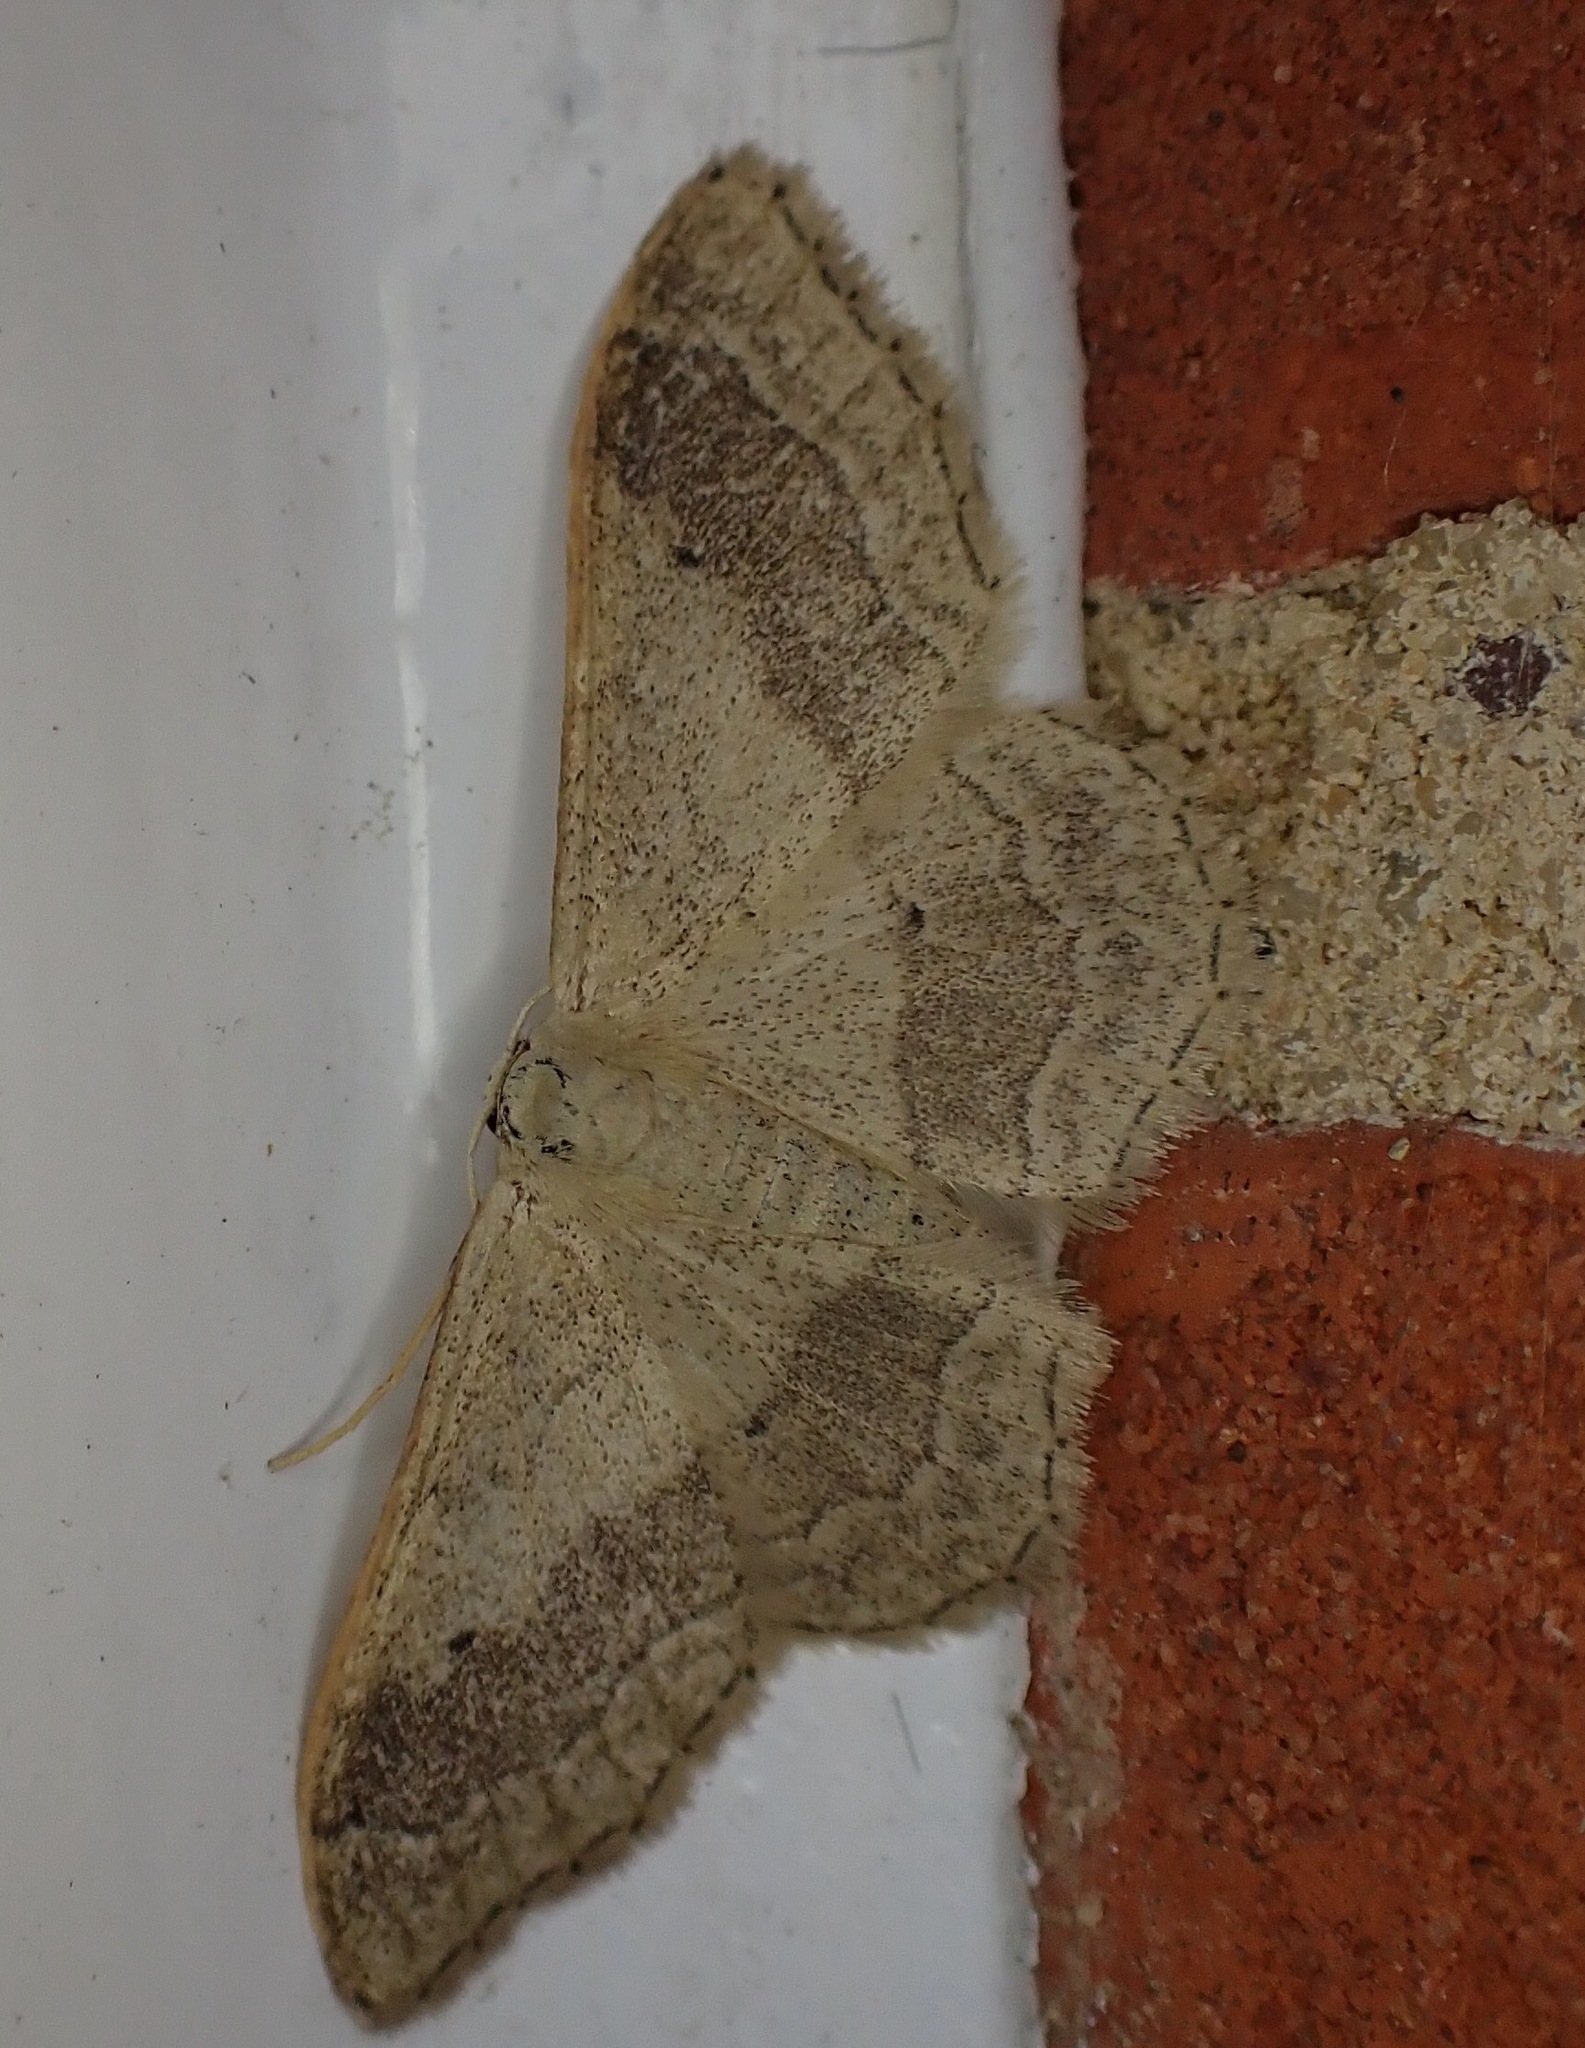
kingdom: Animalia
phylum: Arthropoda
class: Insecta
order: Lepidoptera
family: Geometridae
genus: Idaea
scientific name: Idaea aversata
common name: Riband wave
